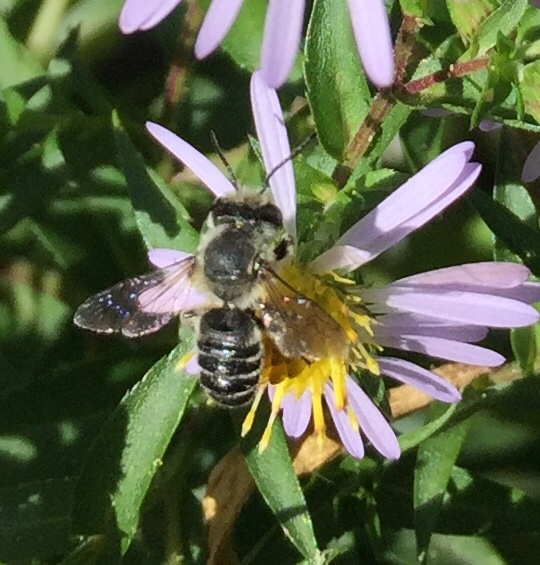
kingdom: Animalia
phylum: Arthropoda
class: Insecta
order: Hymenoptera
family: Megachilidae
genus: Megachile
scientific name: Megachile
